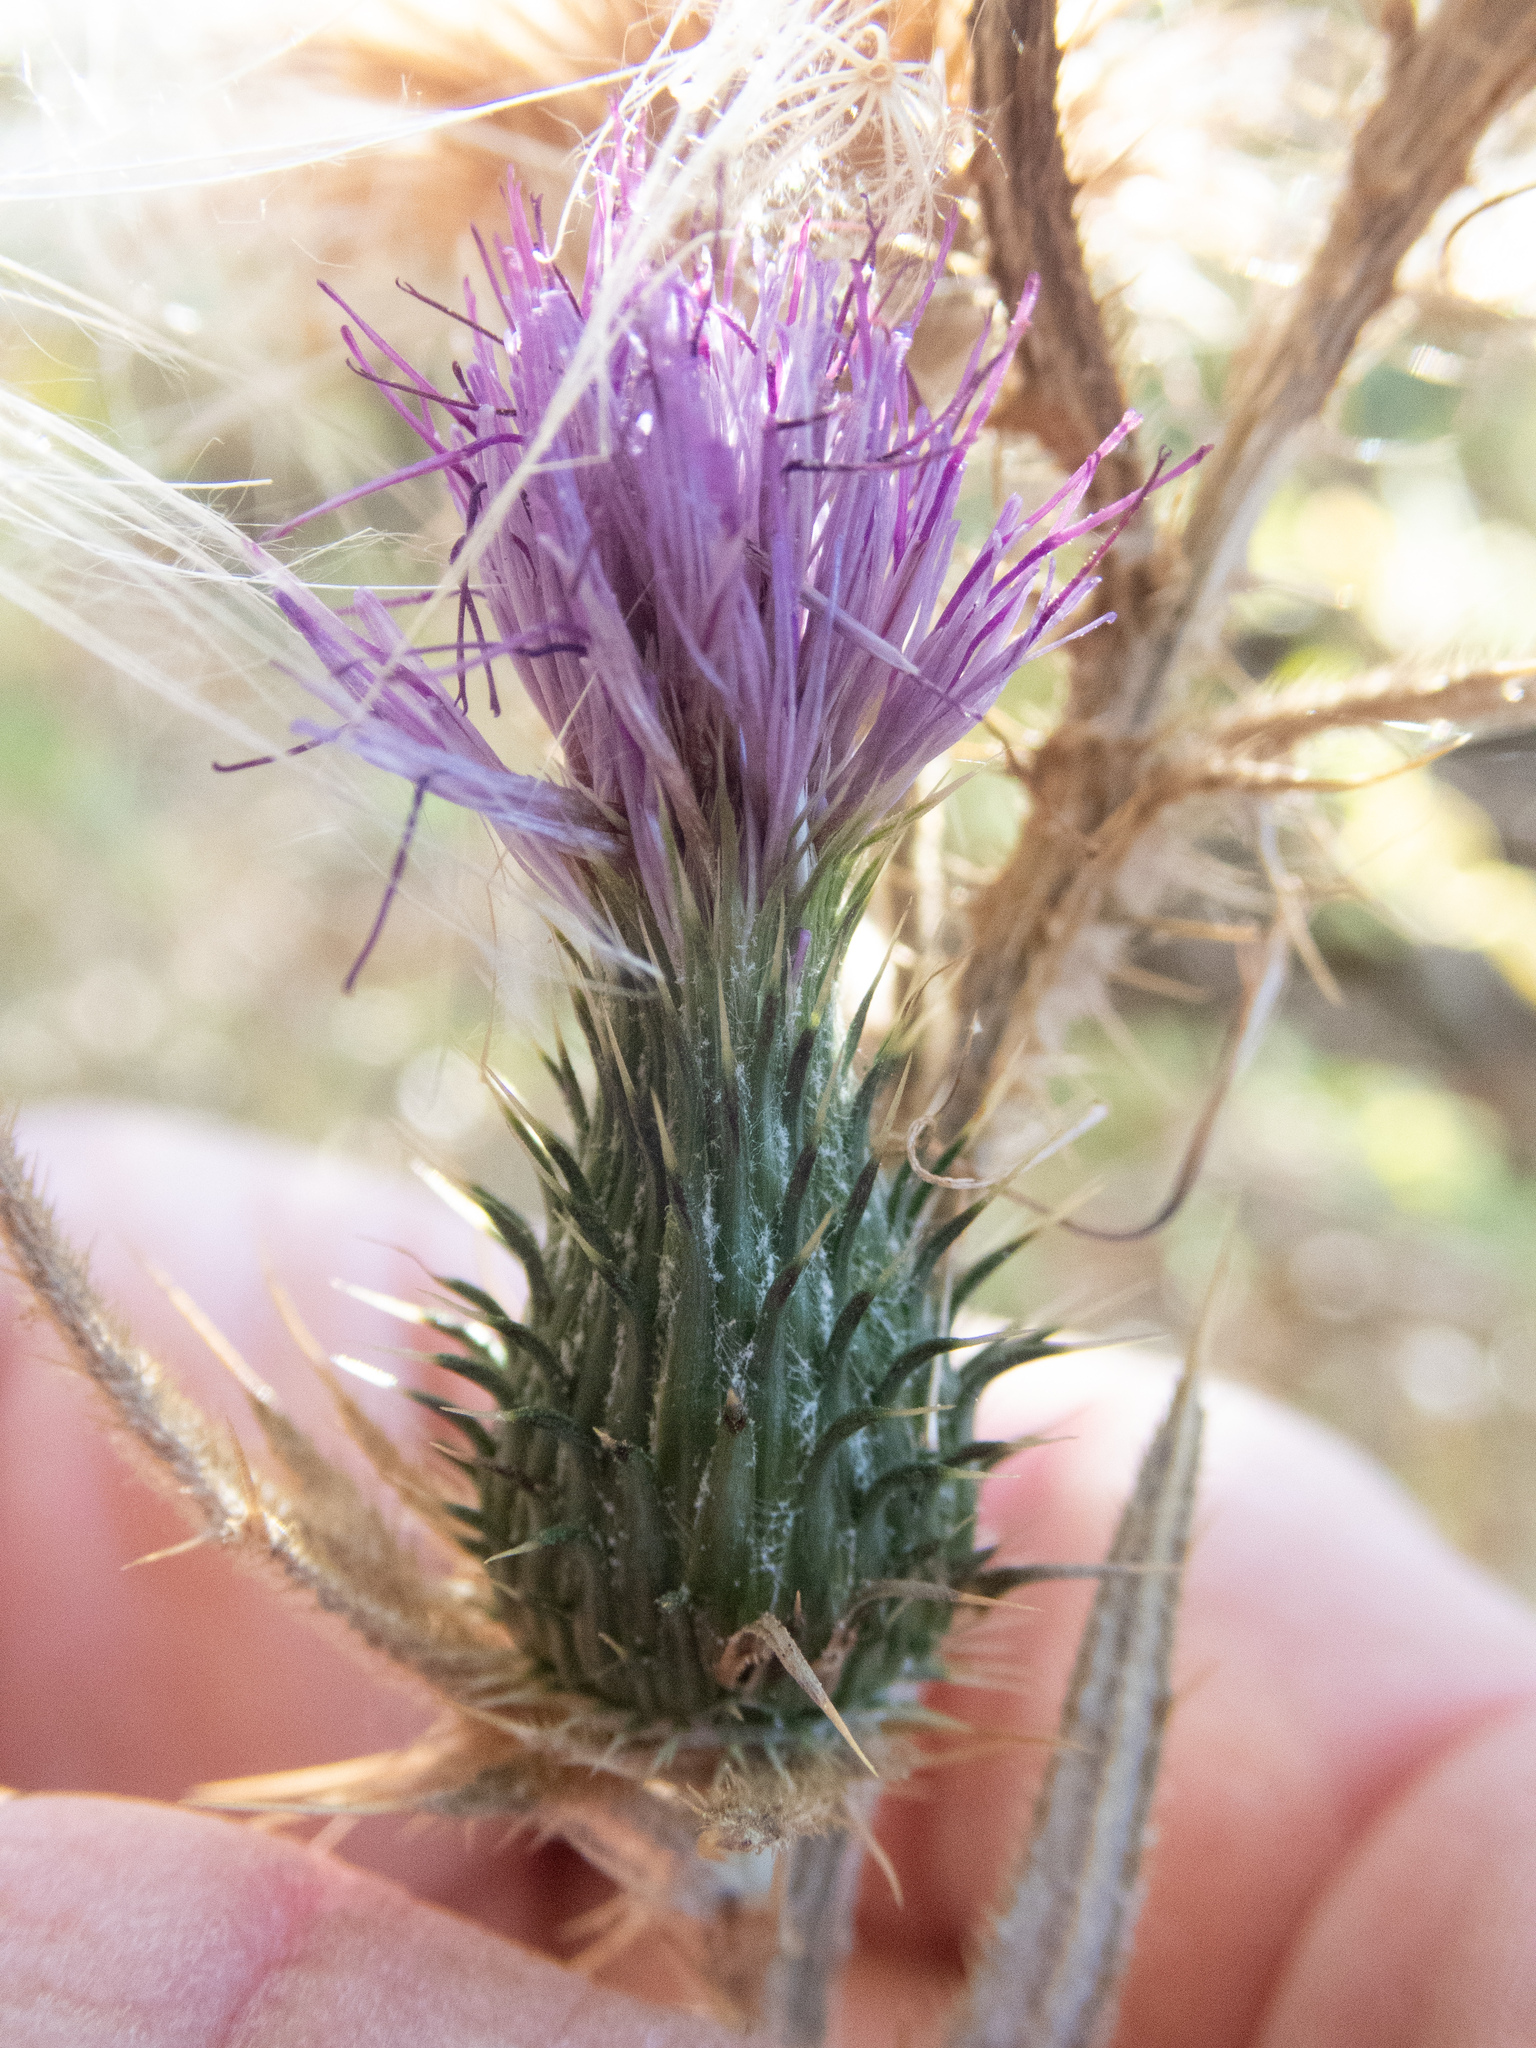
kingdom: Plantae
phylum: Tracheophyta
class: Magnoliopsida
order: Asterales
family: Asteraceae
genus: Cirsium
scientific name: Cirsium vulgare
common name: Bull thistle
